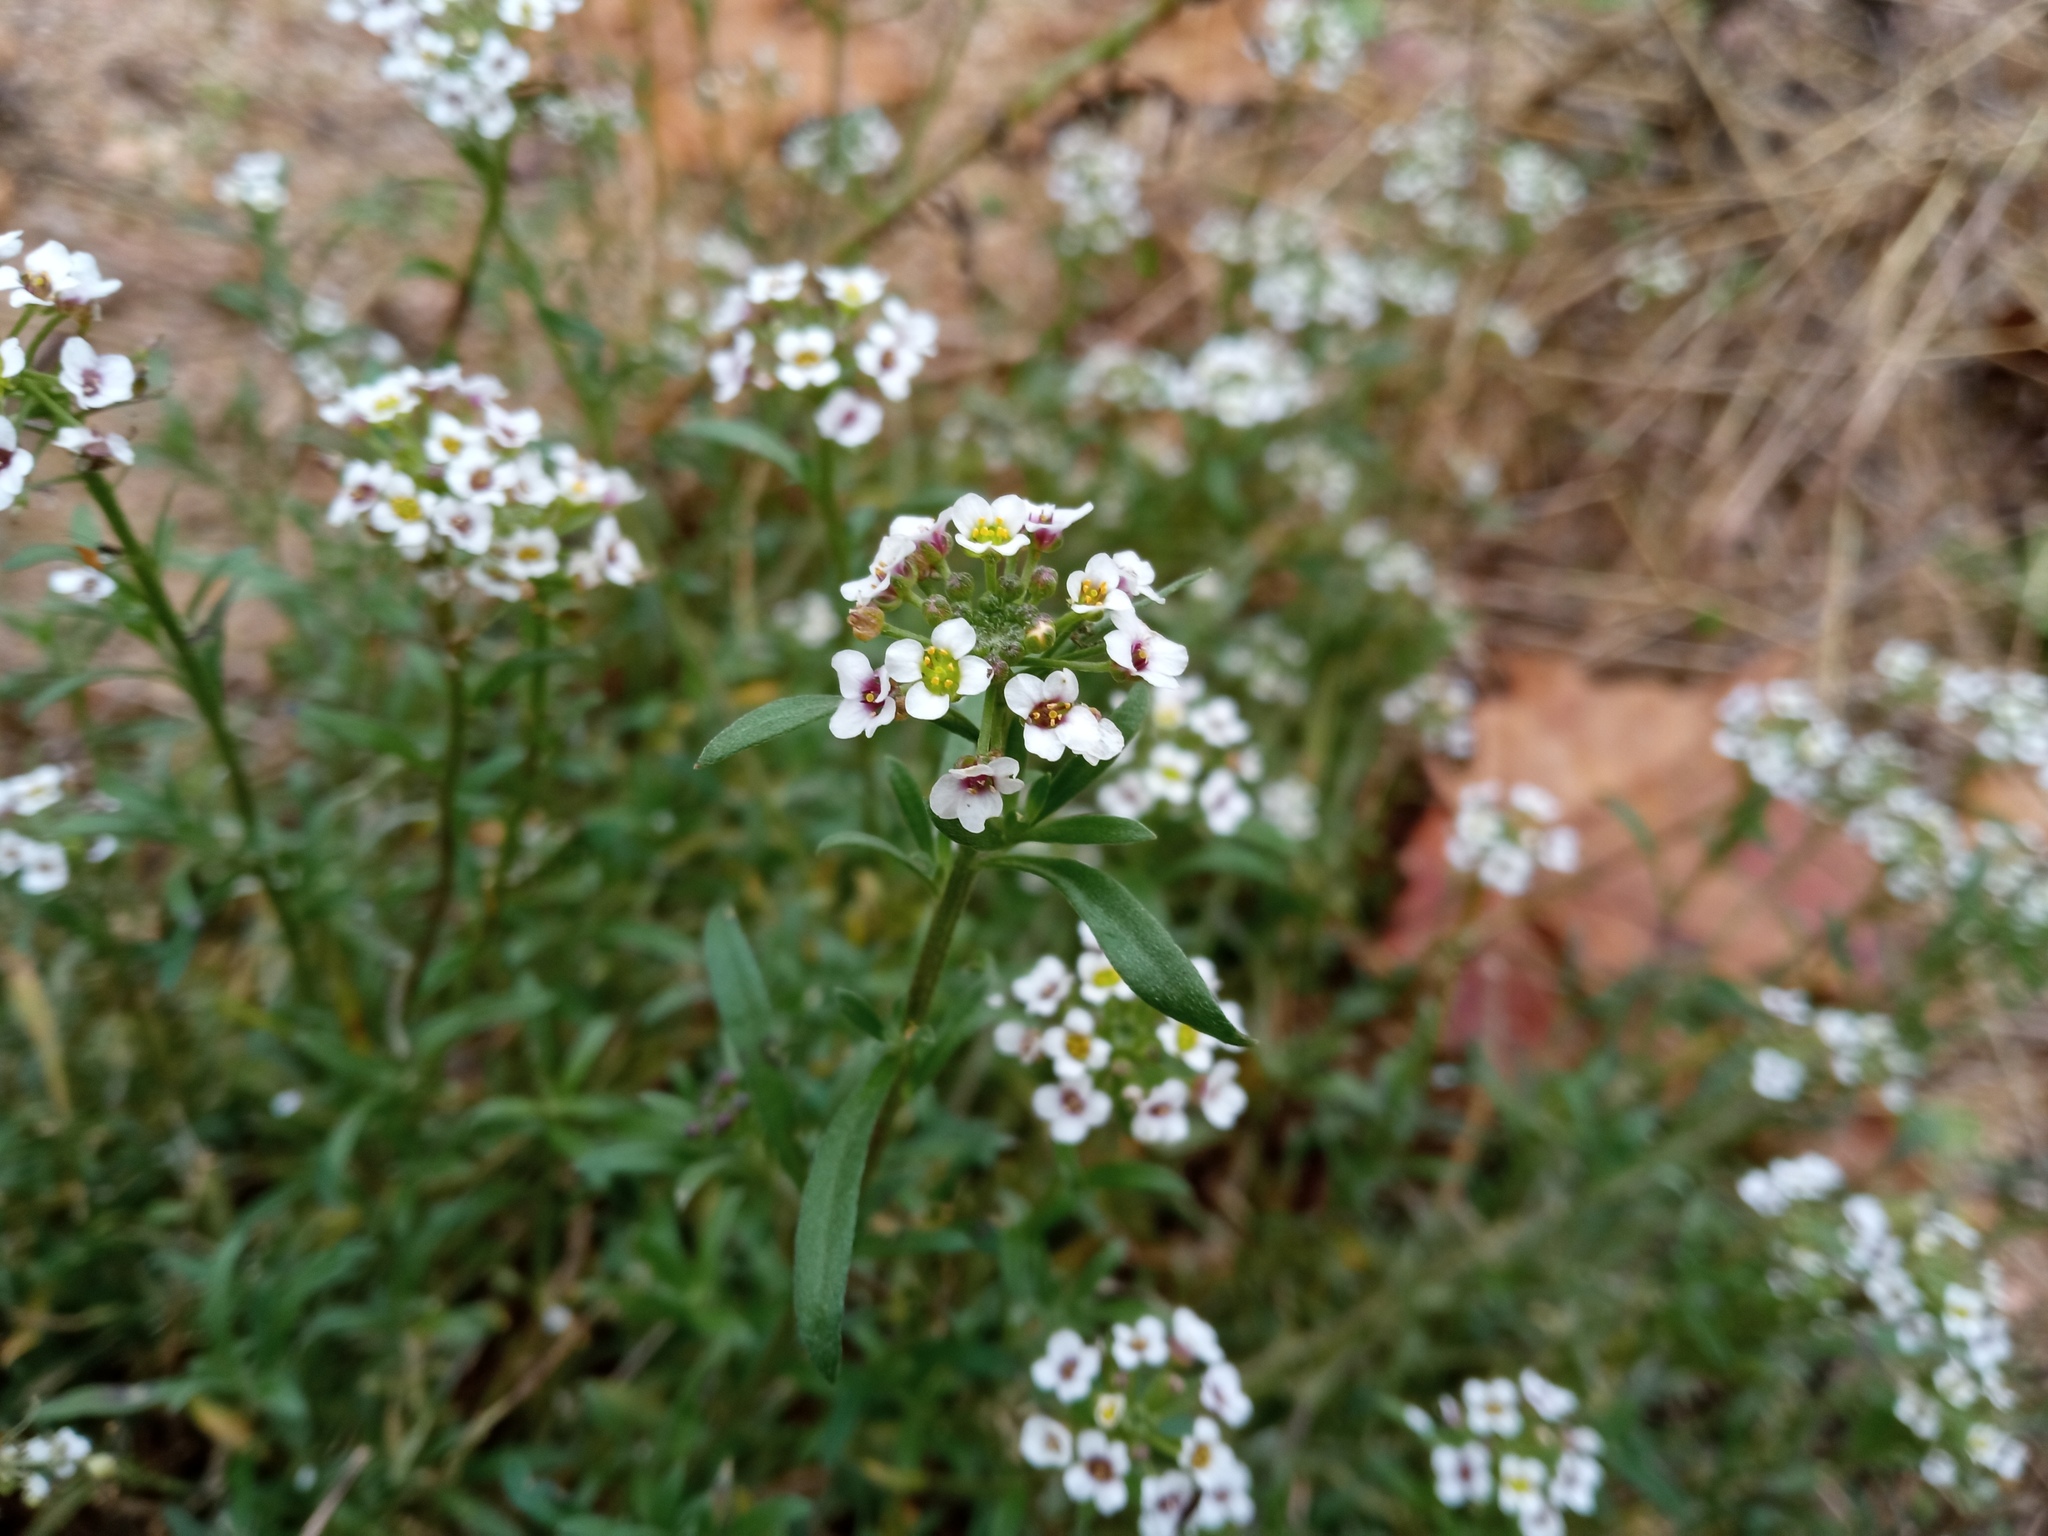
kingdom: Plantae
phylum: Tracheophyta
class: Magnoliopsida
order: Brassicales
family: Brassicaceae
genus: Lobularia
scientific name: Lobularia maritima
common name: Sweet alison
